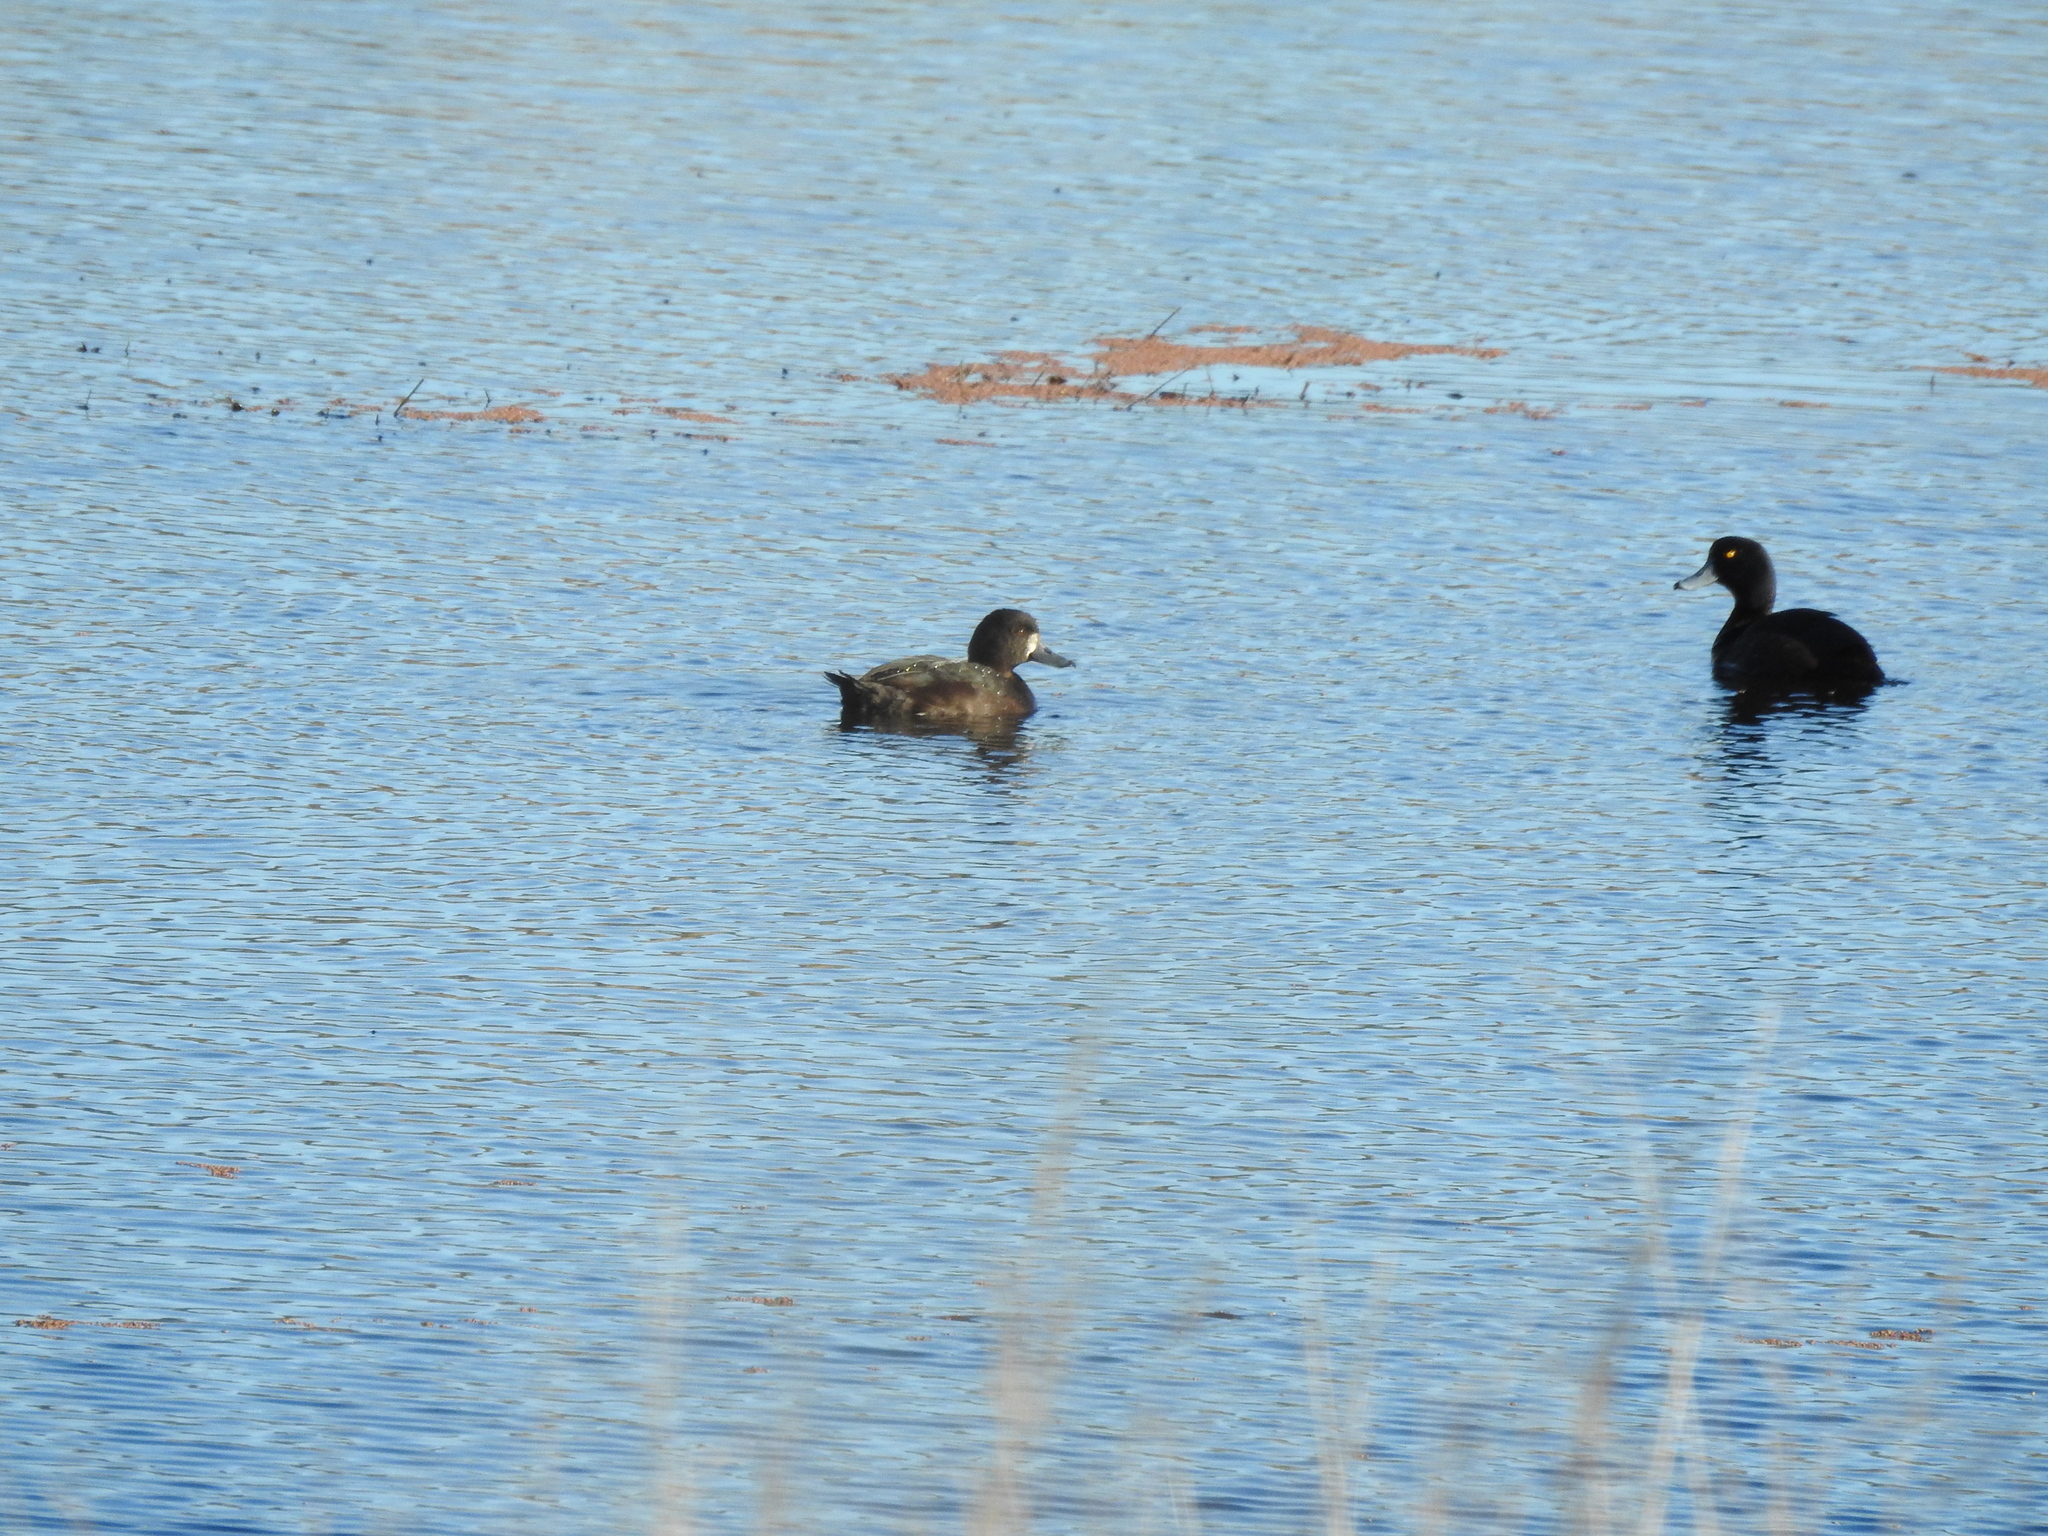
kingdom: Animalia
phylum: Chordata
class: Aves
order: Anseriformes
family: Anatidae
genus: Aythya
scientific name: Aythya novaeseelandiae
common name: New zealand scaup
